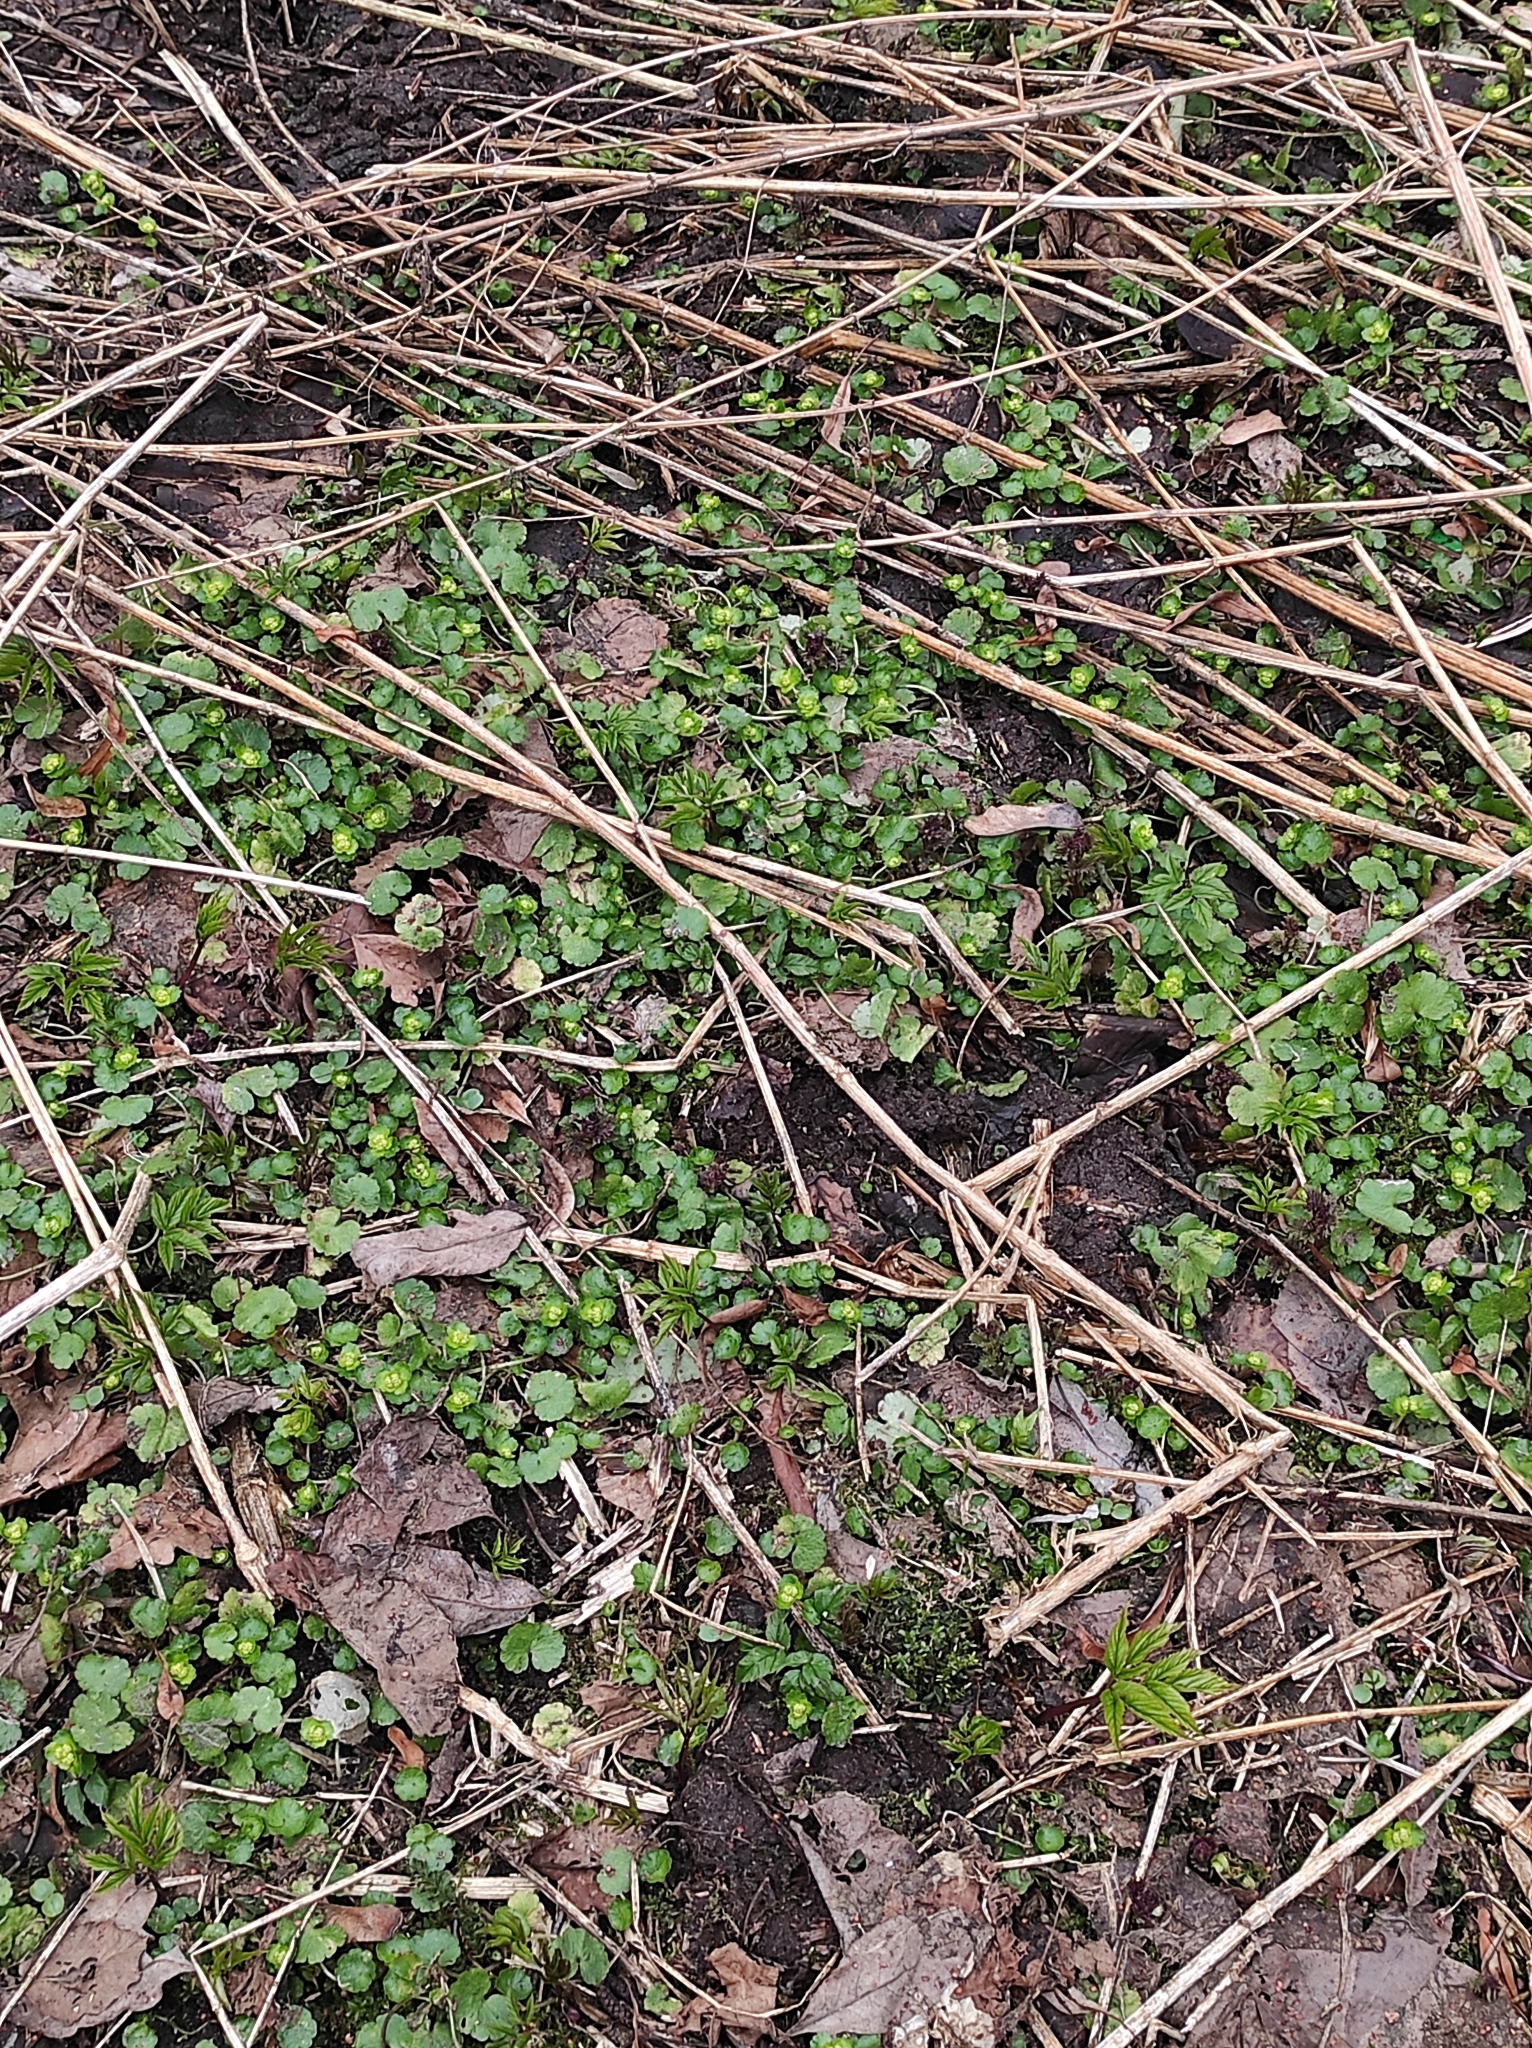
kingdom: Plantae
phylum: Tracheophyta
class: Magnoliopsida
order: Saxifragales
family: Saxifragaceae
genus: Chrysosplenium
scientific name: Chrysosplenium alternifolium
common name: Alternate-leaved golden-saxifrage
